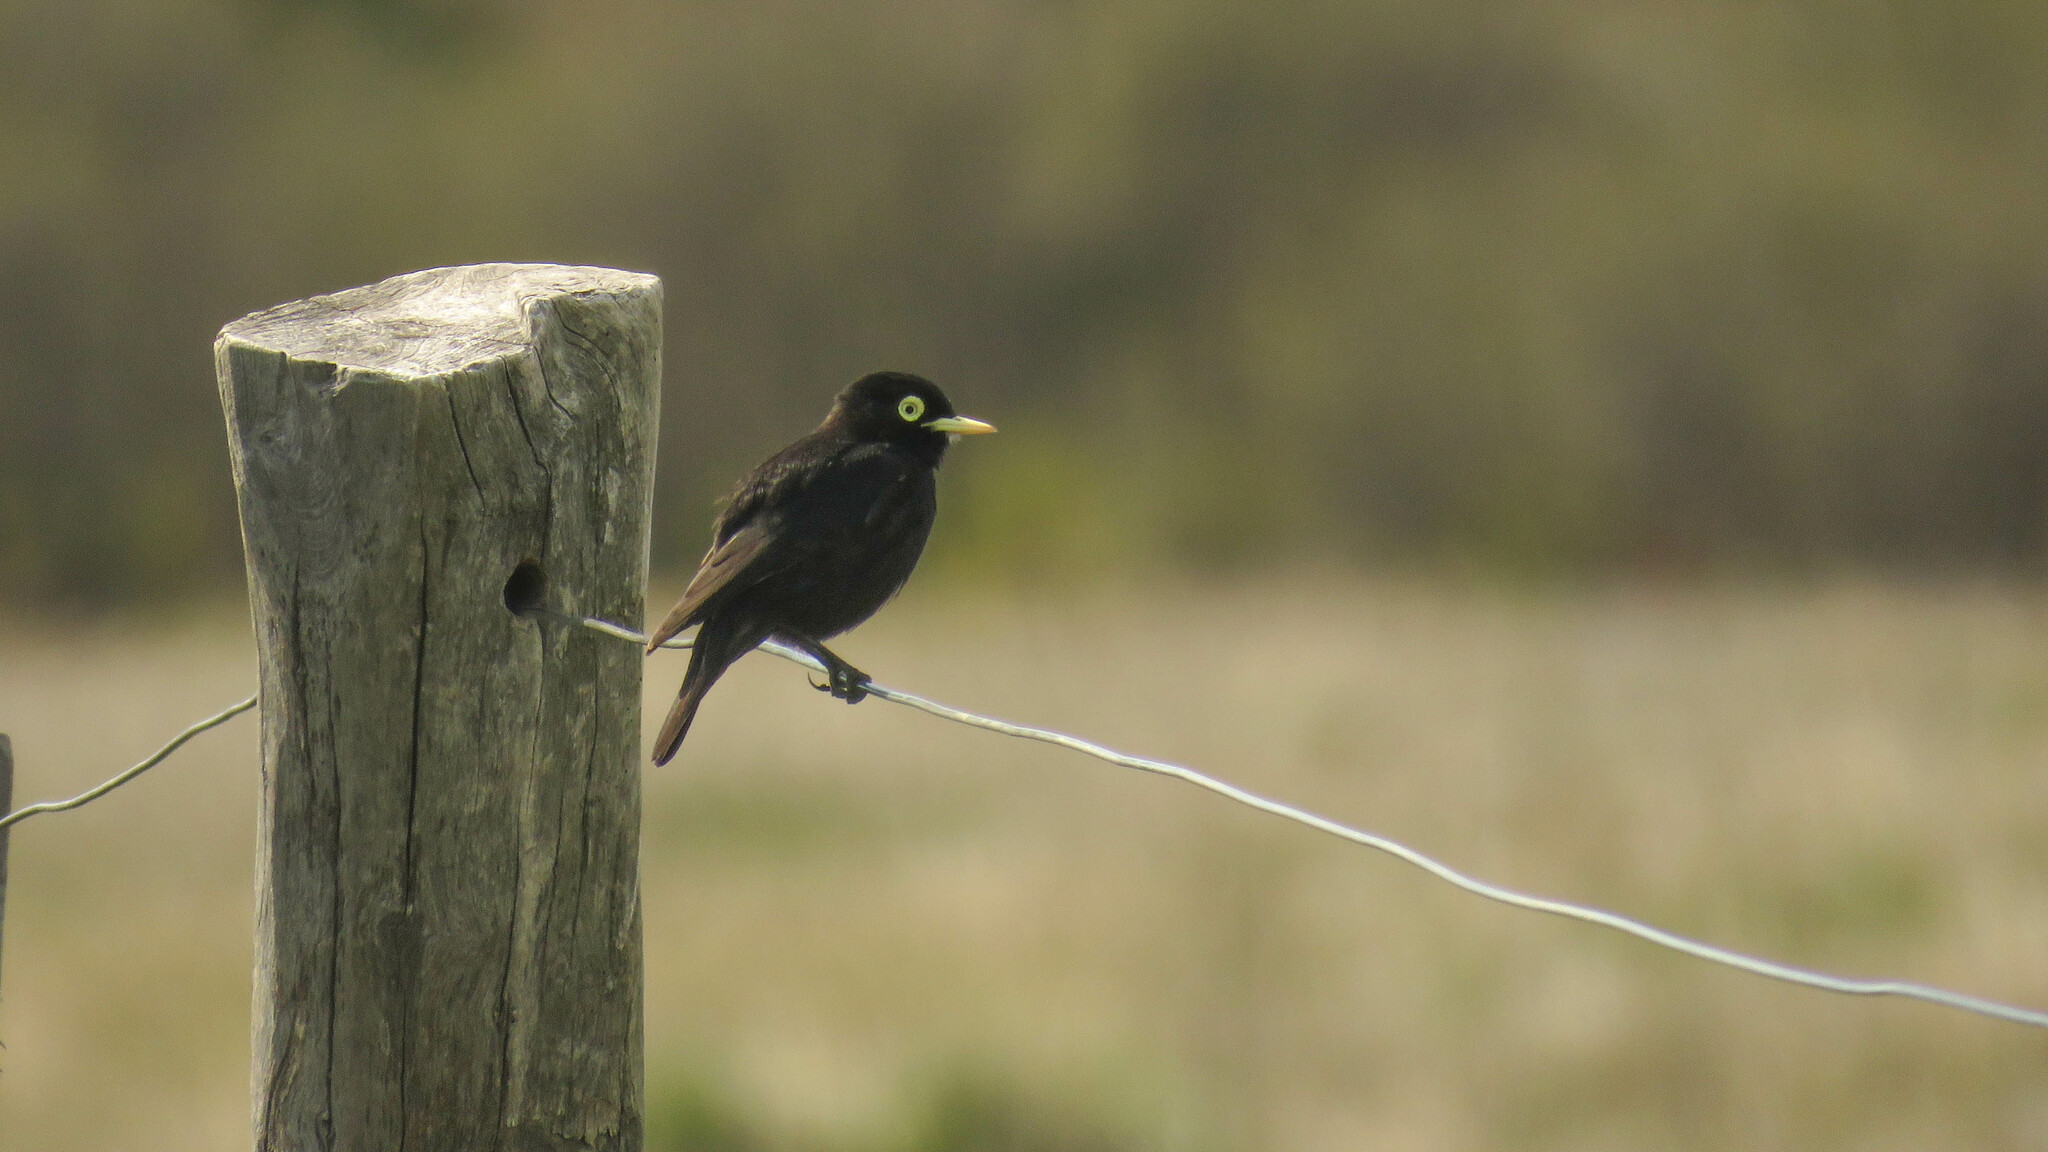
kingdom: Animalia
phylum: Chordata
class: Aves
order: Passeriformes
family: Tyrannidae
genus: Hymenops
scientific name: Hymenops perspicillatus
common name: Spectacled tyrant
